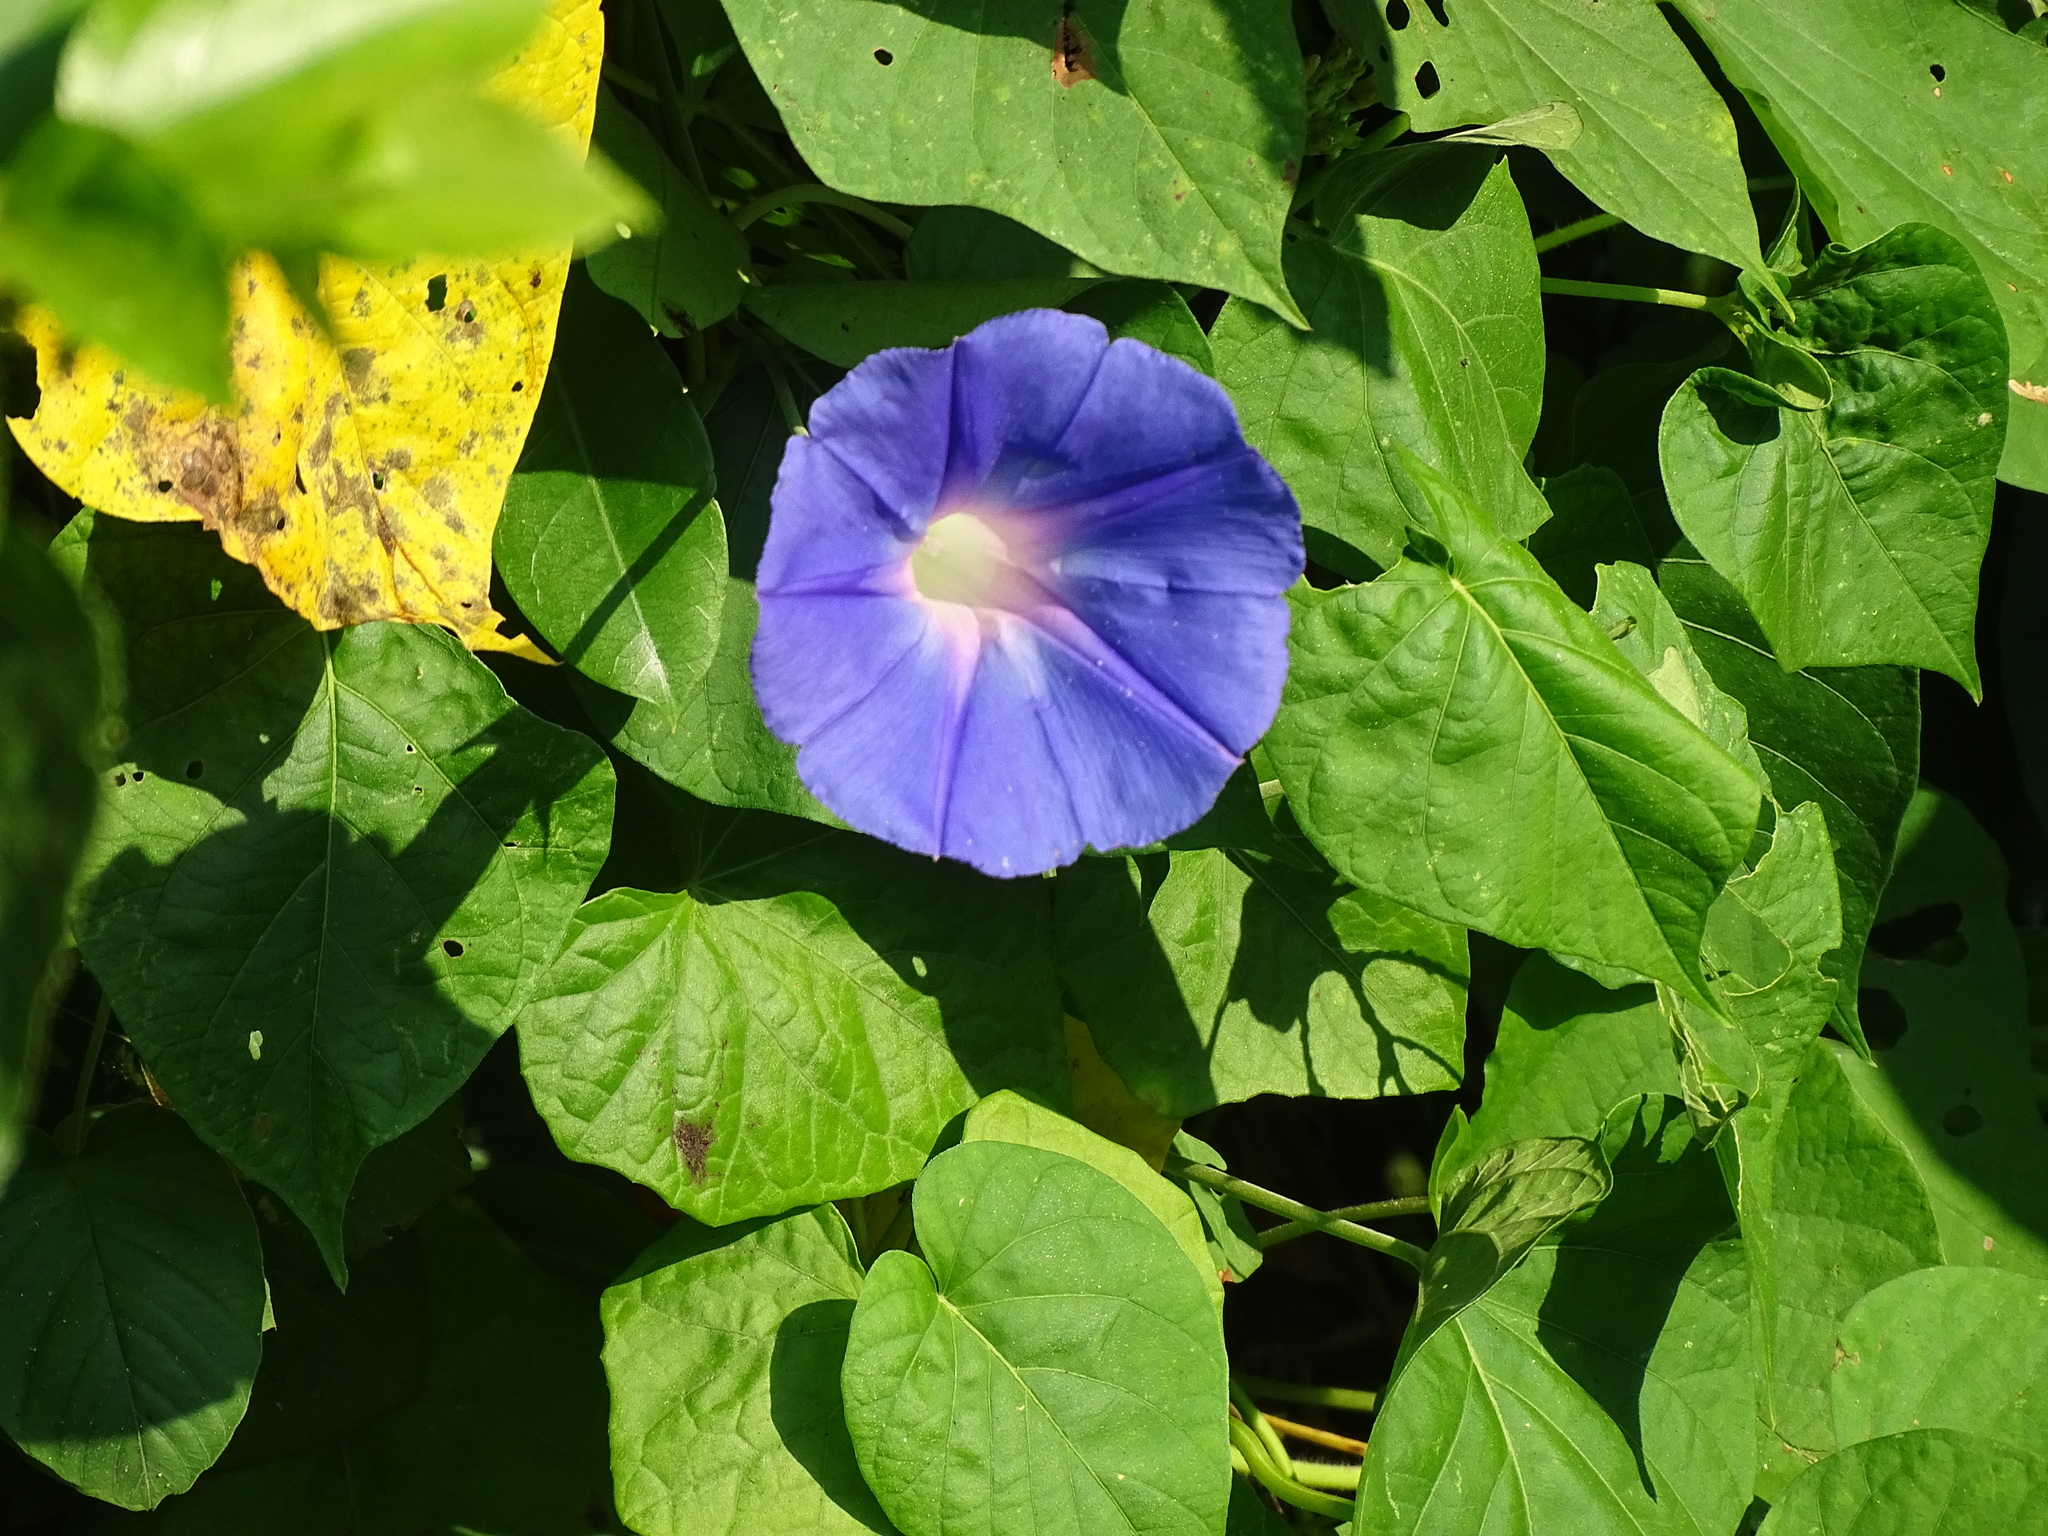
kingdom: Plantae
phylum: Tracheophyta
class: Magnoliopsida
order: Solanales
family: Convolvulaceae
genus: Ipomoea
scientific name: Ipomoea indica
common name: Blue dawnflower
